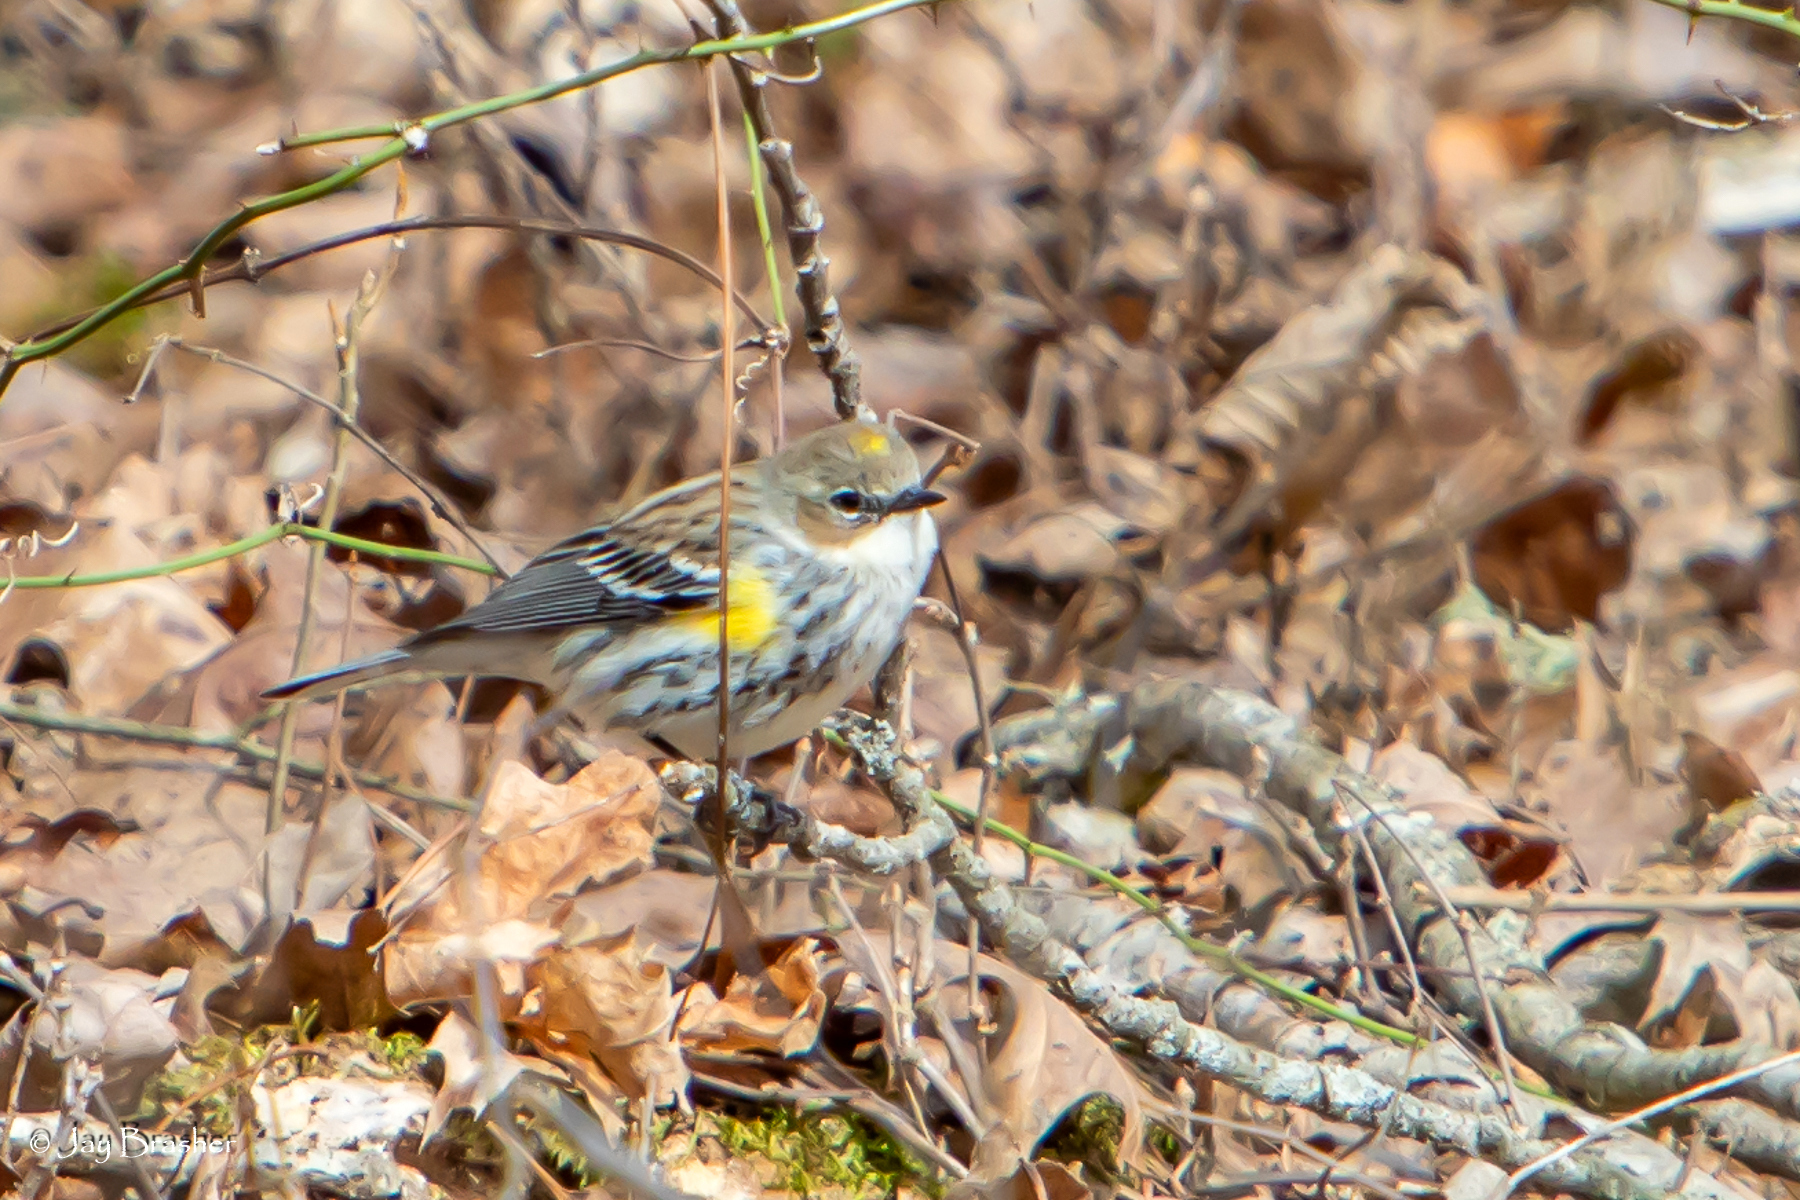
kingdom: Animalia
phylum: Chordata
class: Aves
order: Passeriformes
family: Parulidae
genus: Setophaga
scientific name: Setophaga coronata
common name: Myrtle warbler
